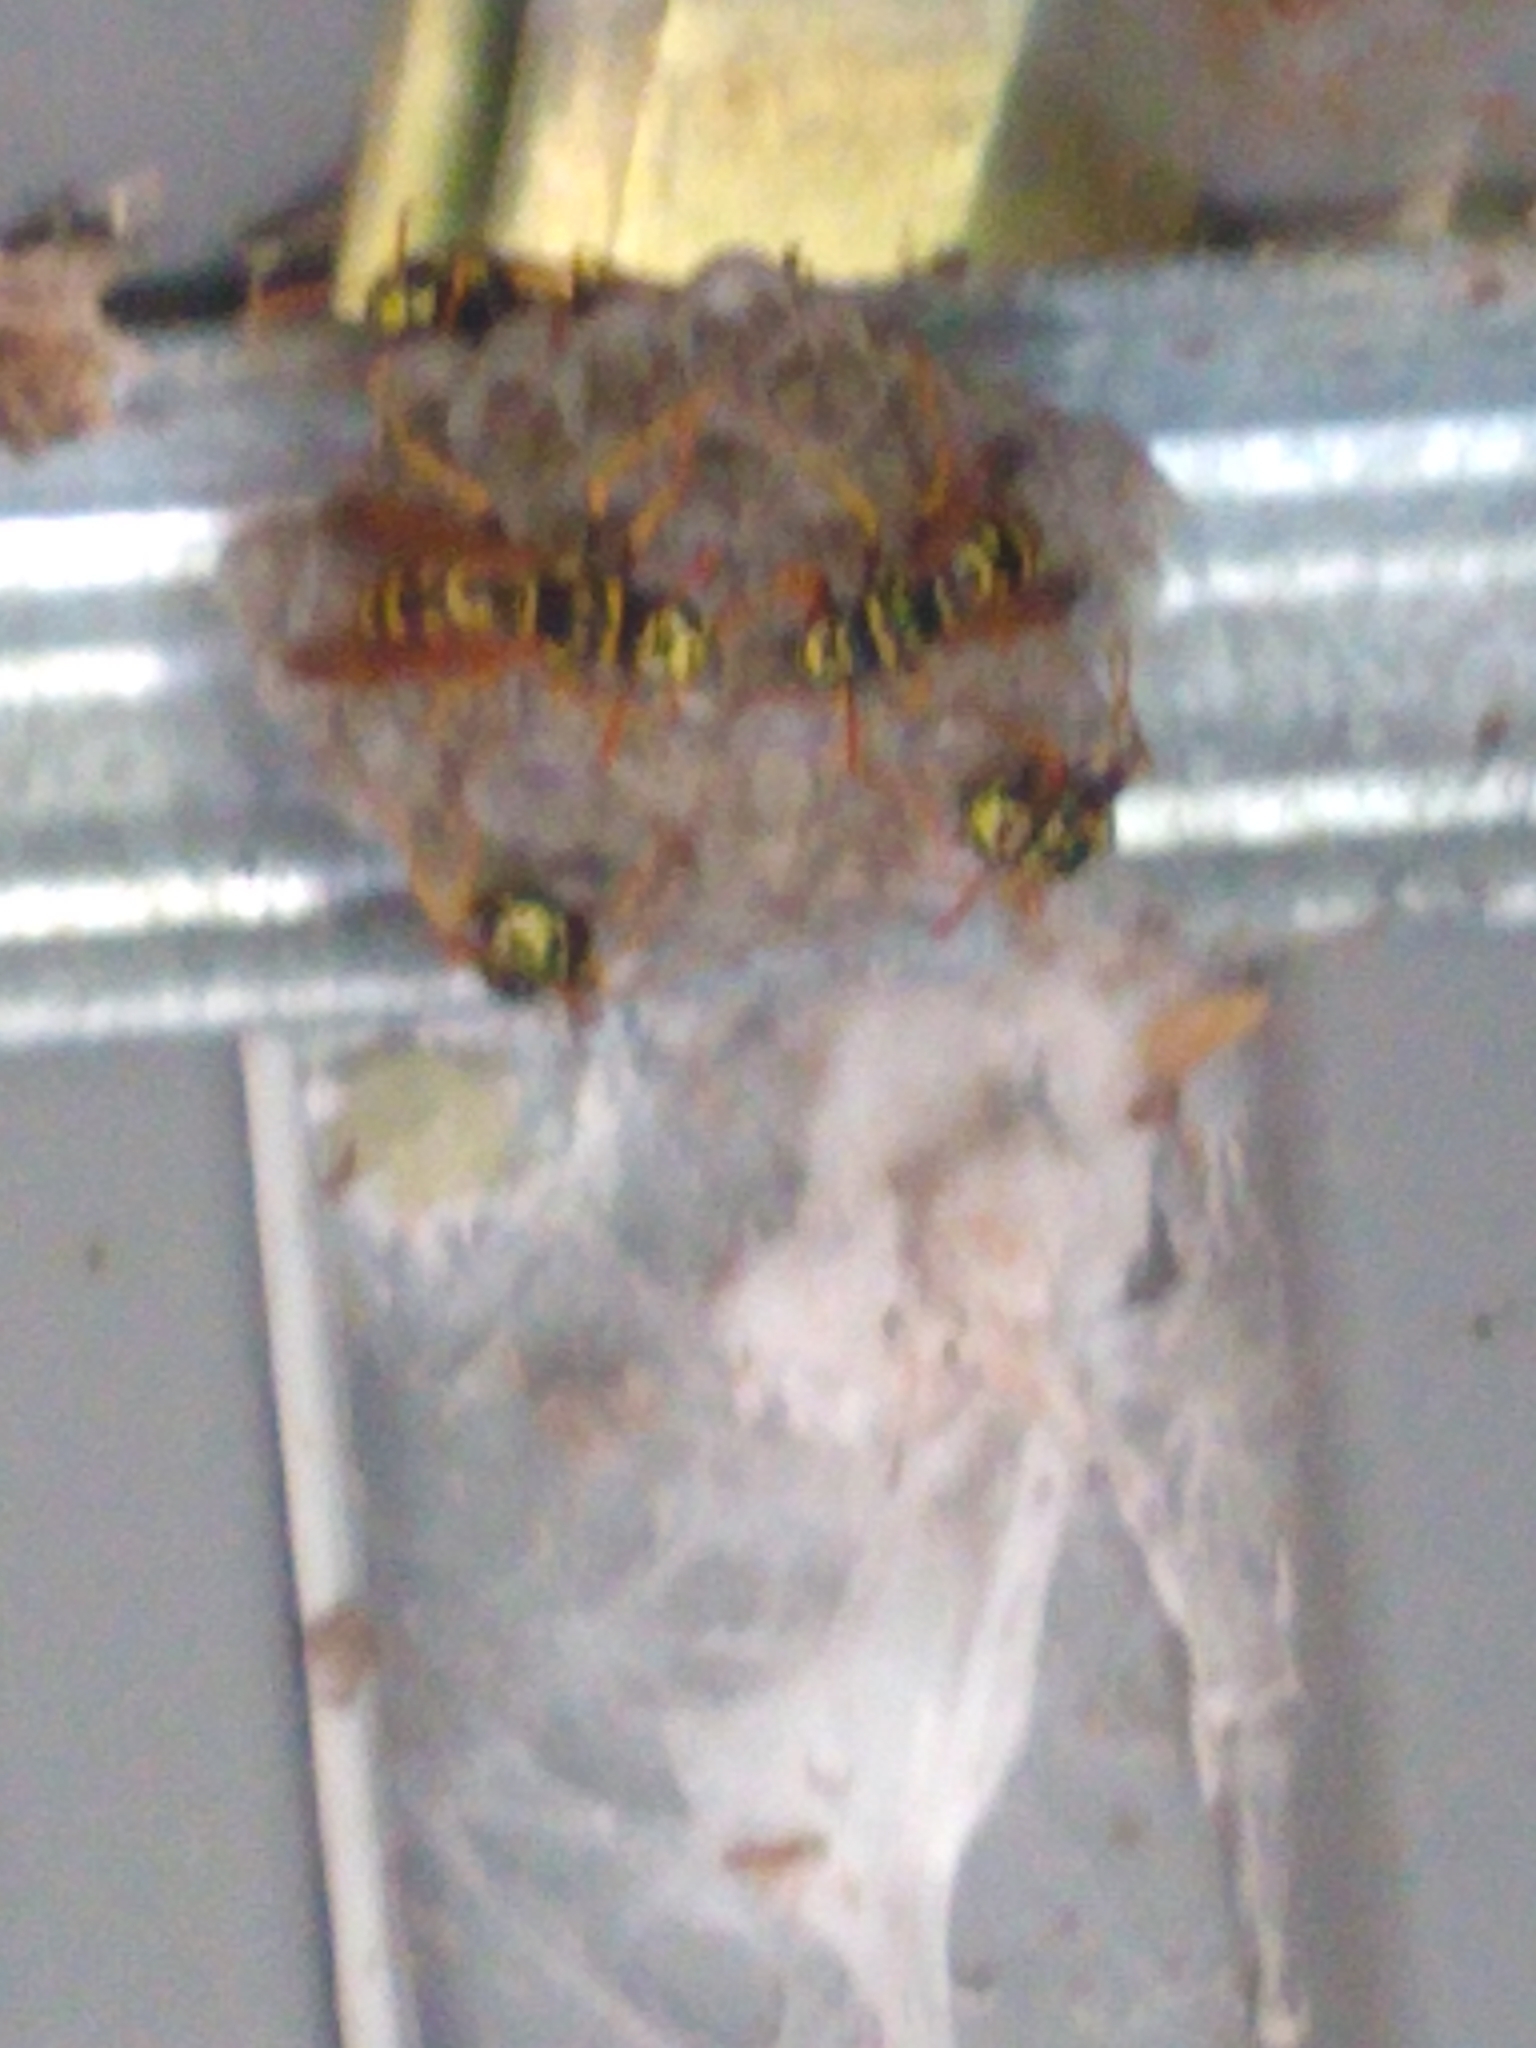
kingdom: Animalia
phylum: Arthropoda
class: Insecta
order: Hymenoptera
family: Eumenidae
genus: Polistes
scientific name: Polistes dominula
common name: Paper wasp
